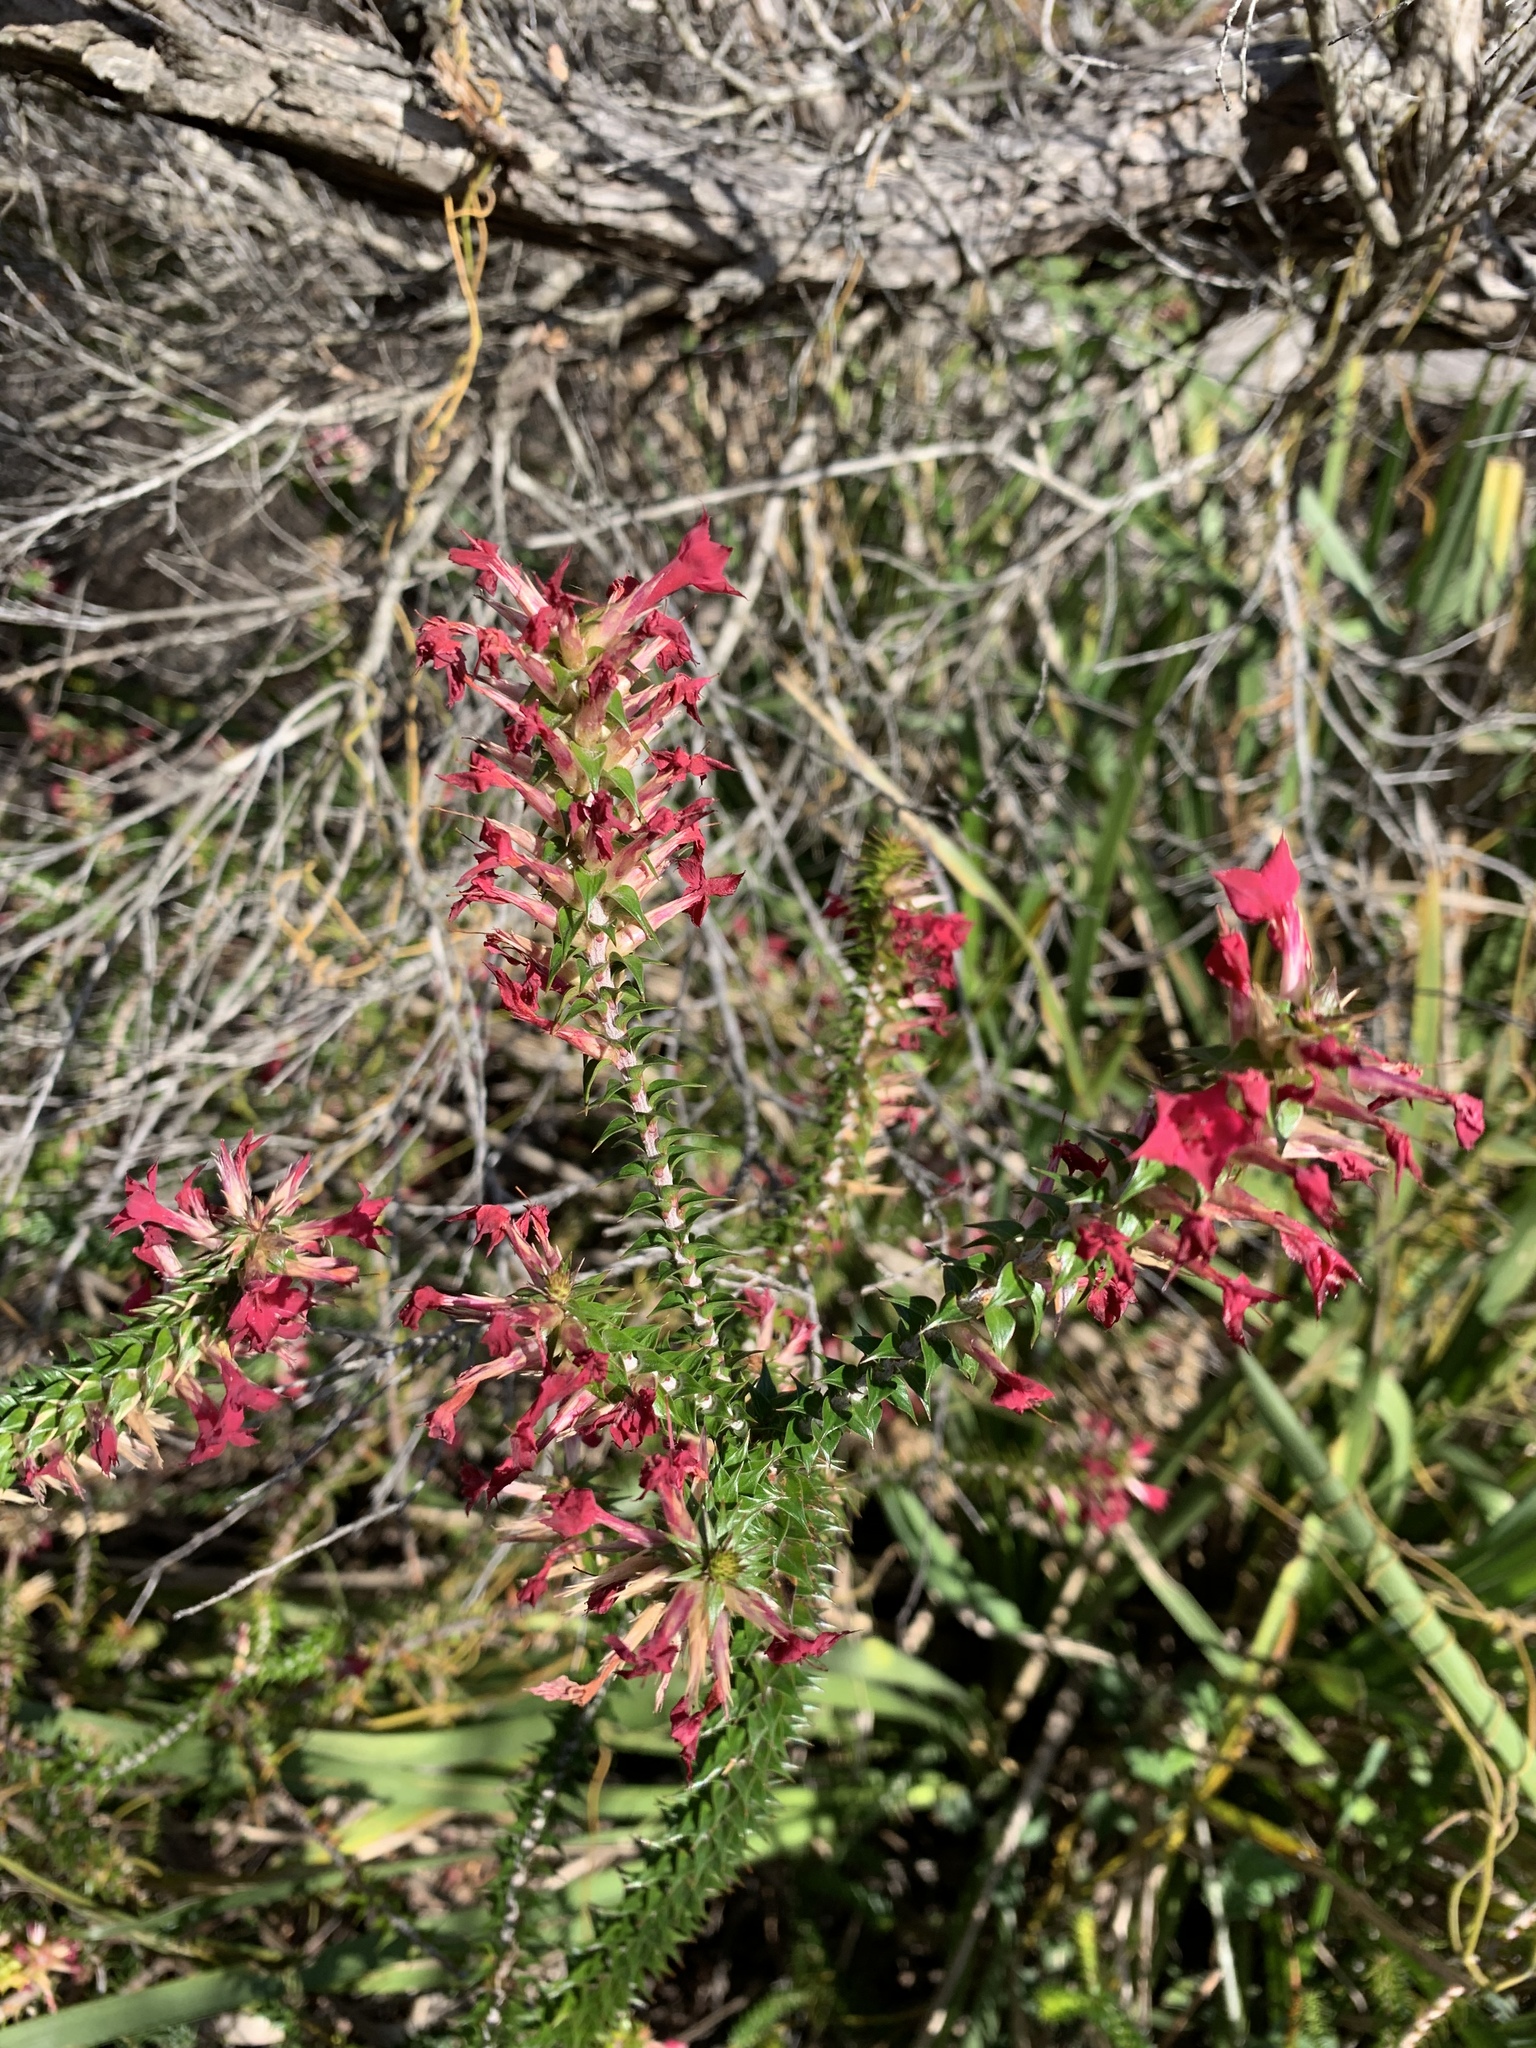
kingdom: Plantae
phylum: Tracheophyta
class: Magnoliopsida
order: Ericales
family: Ericaceae
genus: Woollsia
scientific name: Woollsia pungens
